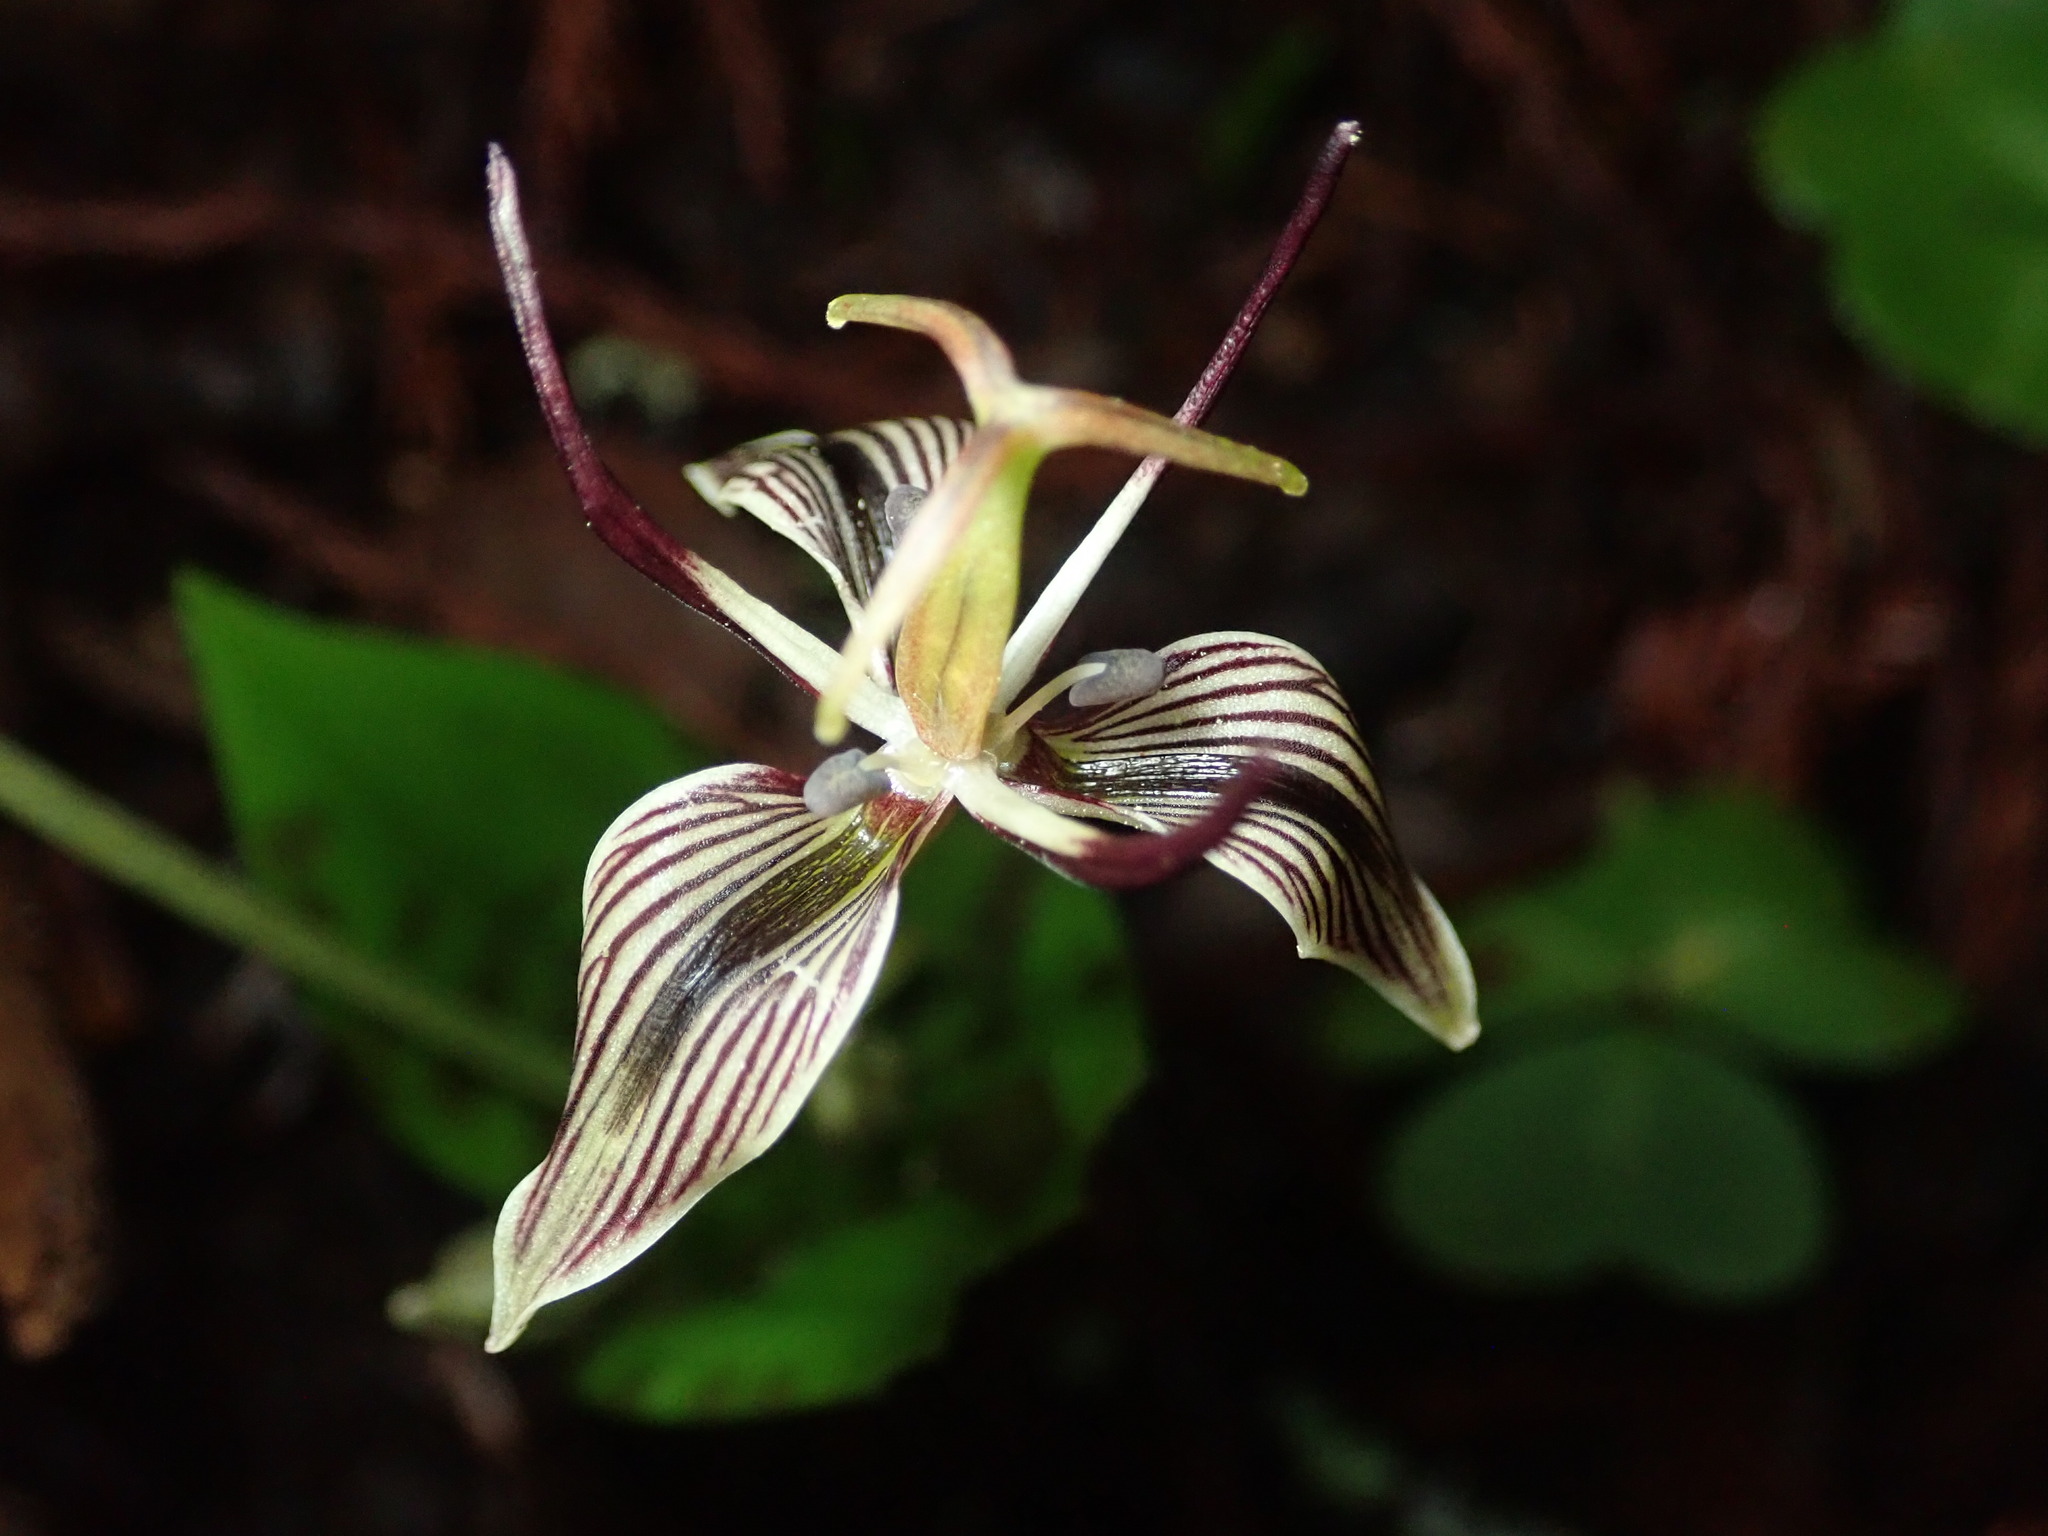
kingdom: Plantae
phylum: Tracheophyta
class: Liliopsida
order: Liliales
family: Liliaceae
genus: Scoliopus
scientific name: Scoliopus bigelovii
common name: Foetid adder's-tongue
